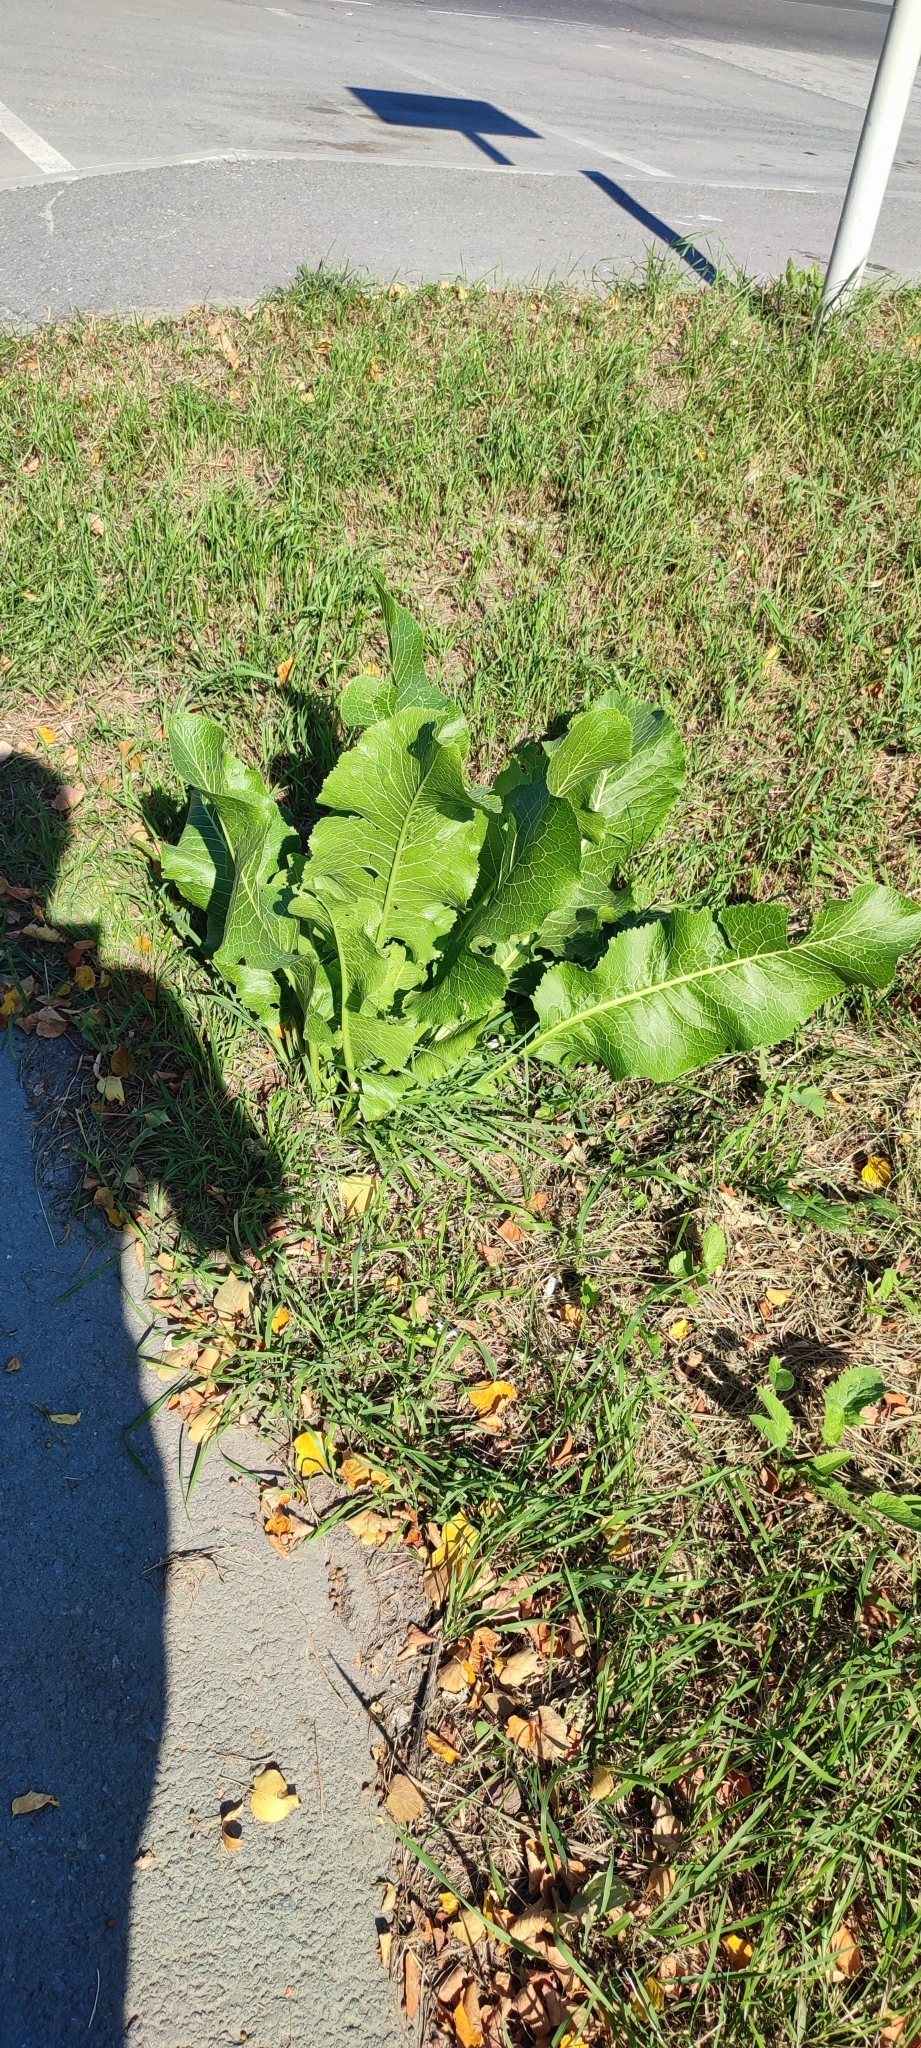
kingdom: Plantae
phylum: Tracheophyta
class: Magnoliopsida
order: Brassicales
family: Brassicaceae
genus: Armoracia
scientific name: Armoracia rusticana
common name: Horseradish
